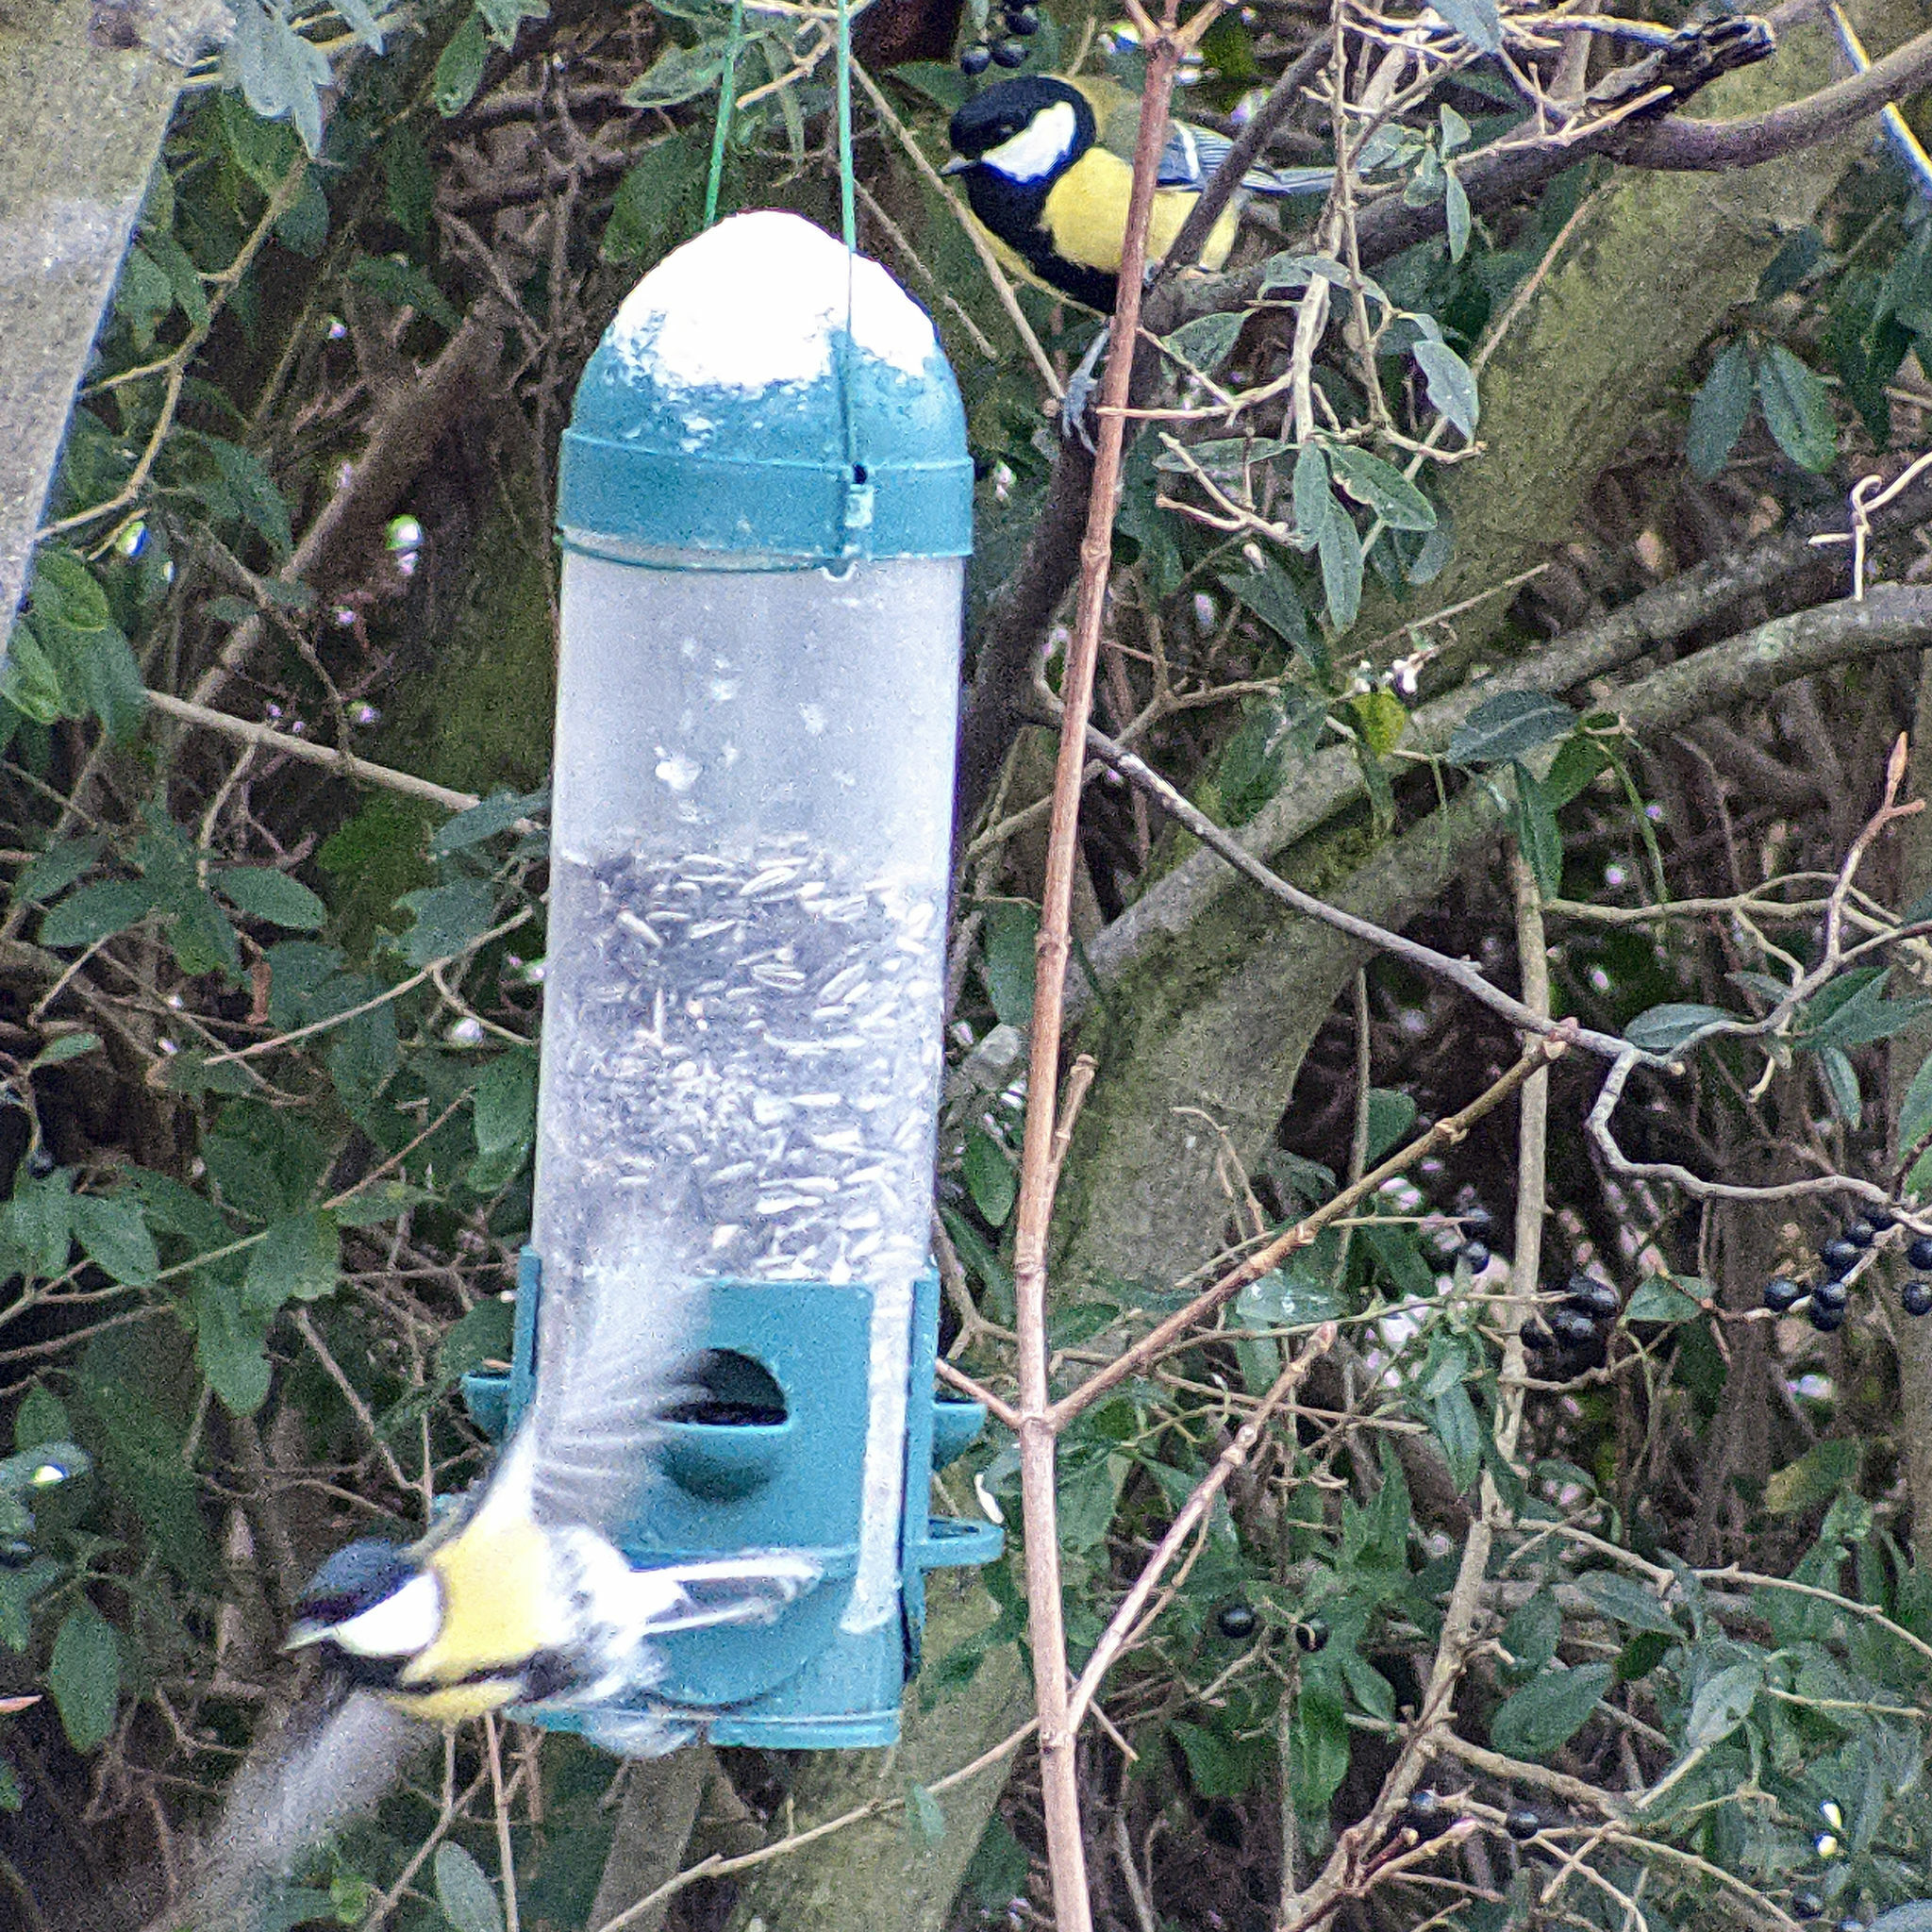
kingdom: Animalia
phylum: Chordata
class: Aves
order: Passeriformes
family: Paridae
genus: Parus
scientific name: Parus major
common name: Great tit
